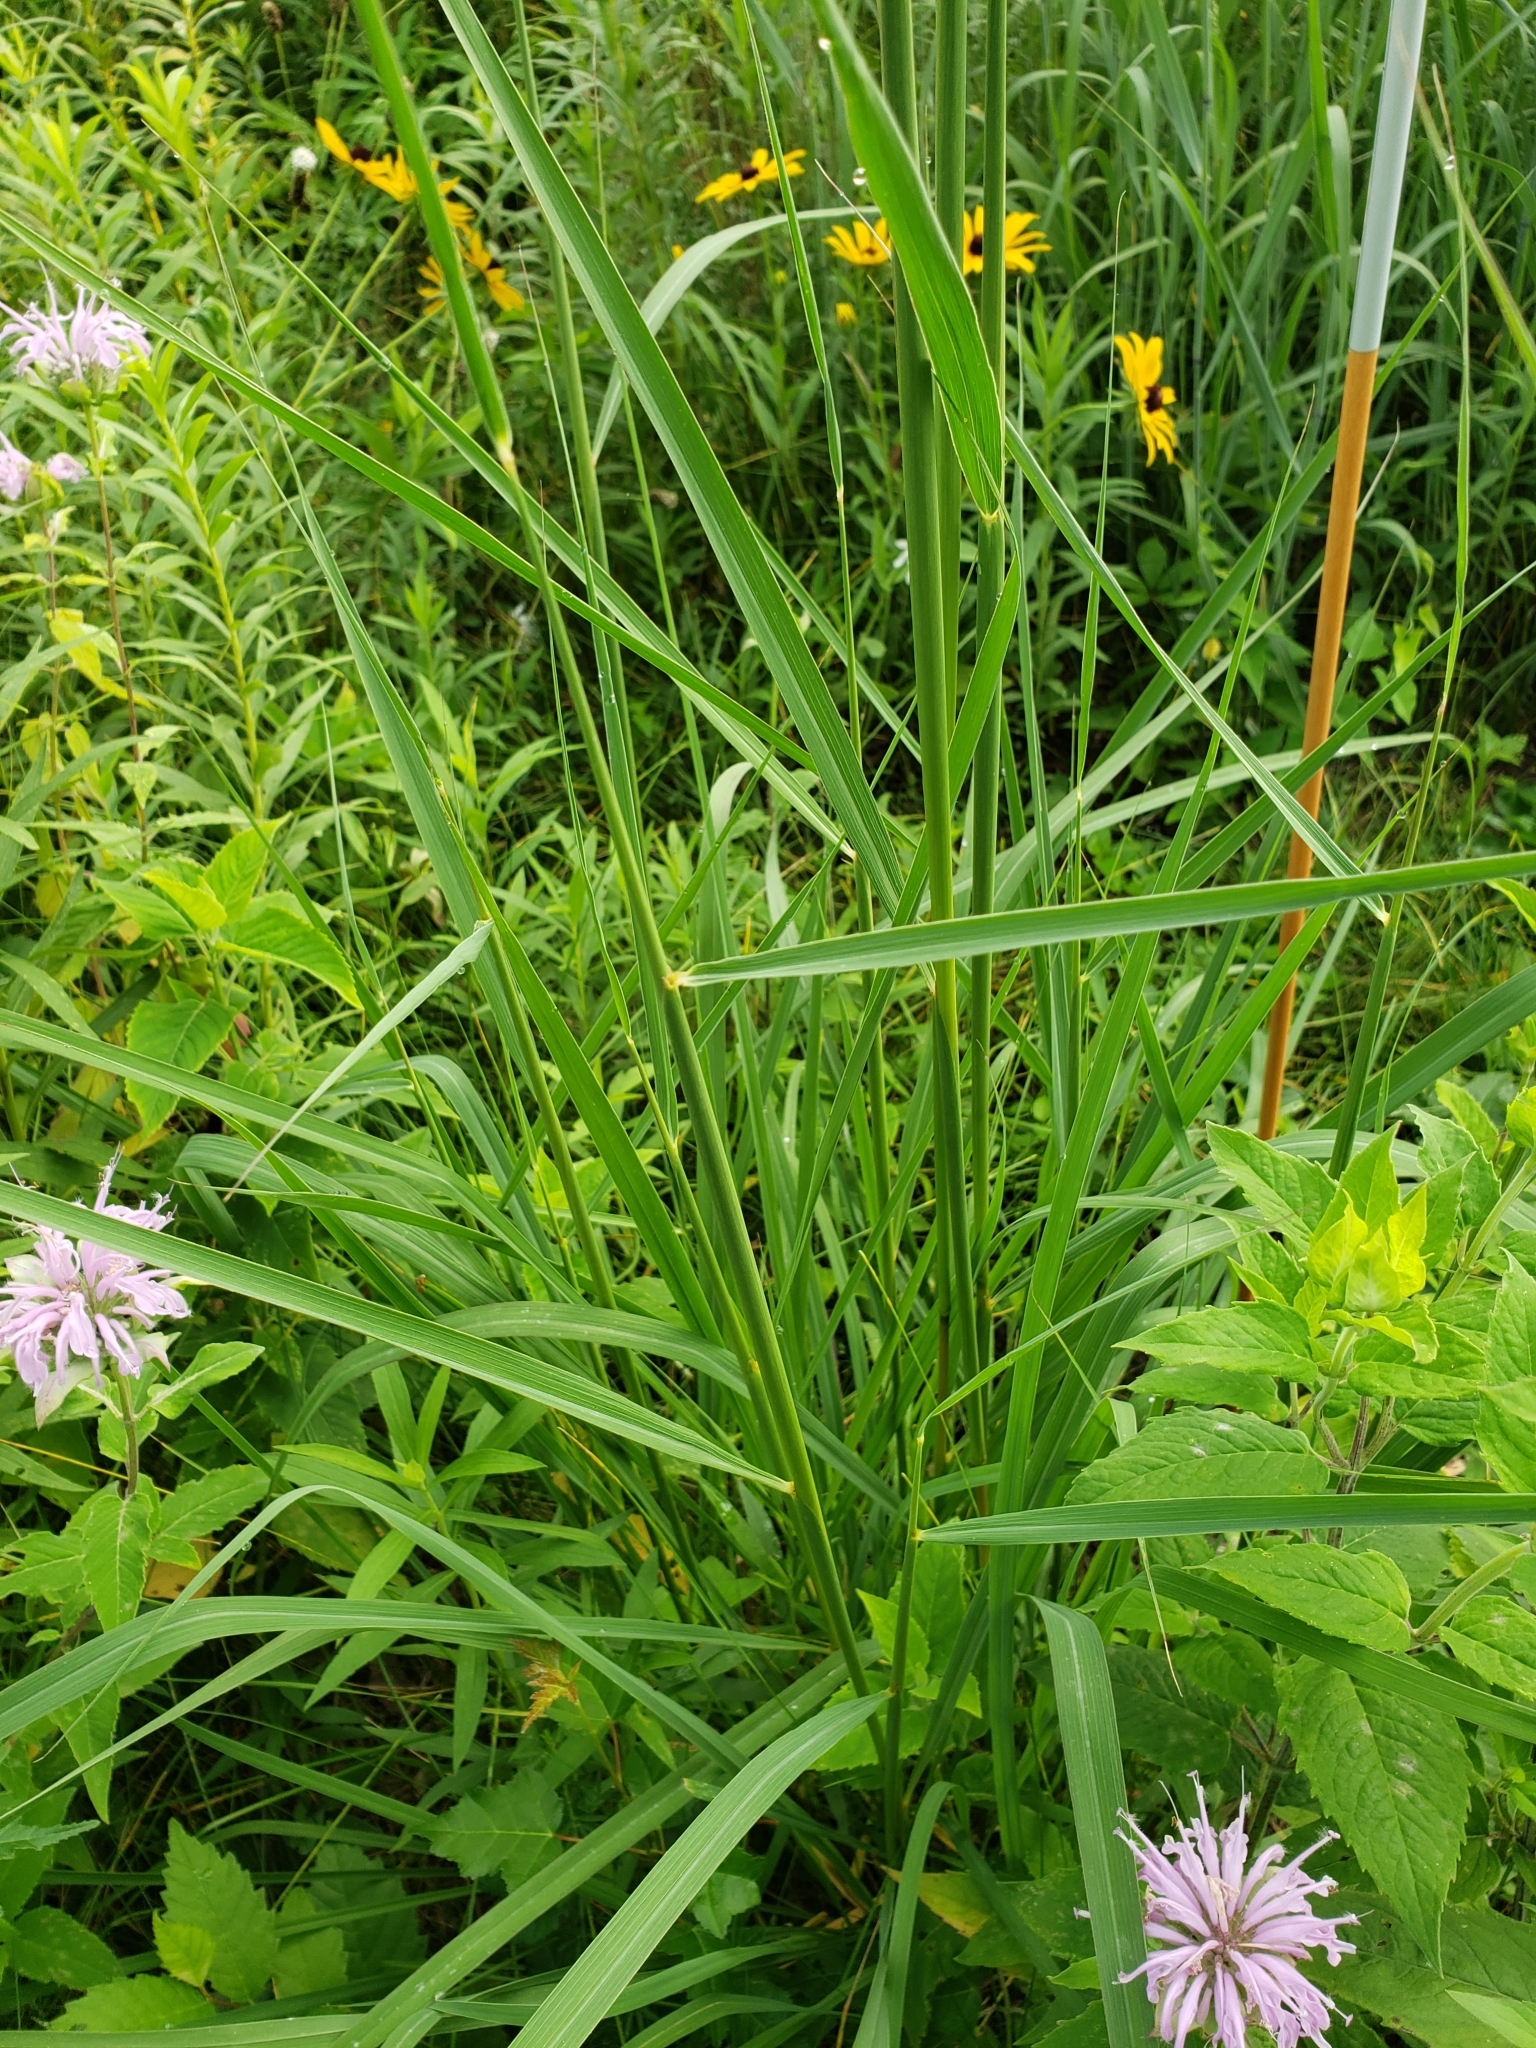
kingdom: Plantae
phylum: Tracheophyta
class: Liliopsida
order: Poales
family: Poaceae
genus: Panicum
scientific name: Panicum virgatum
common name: Switchgrass
